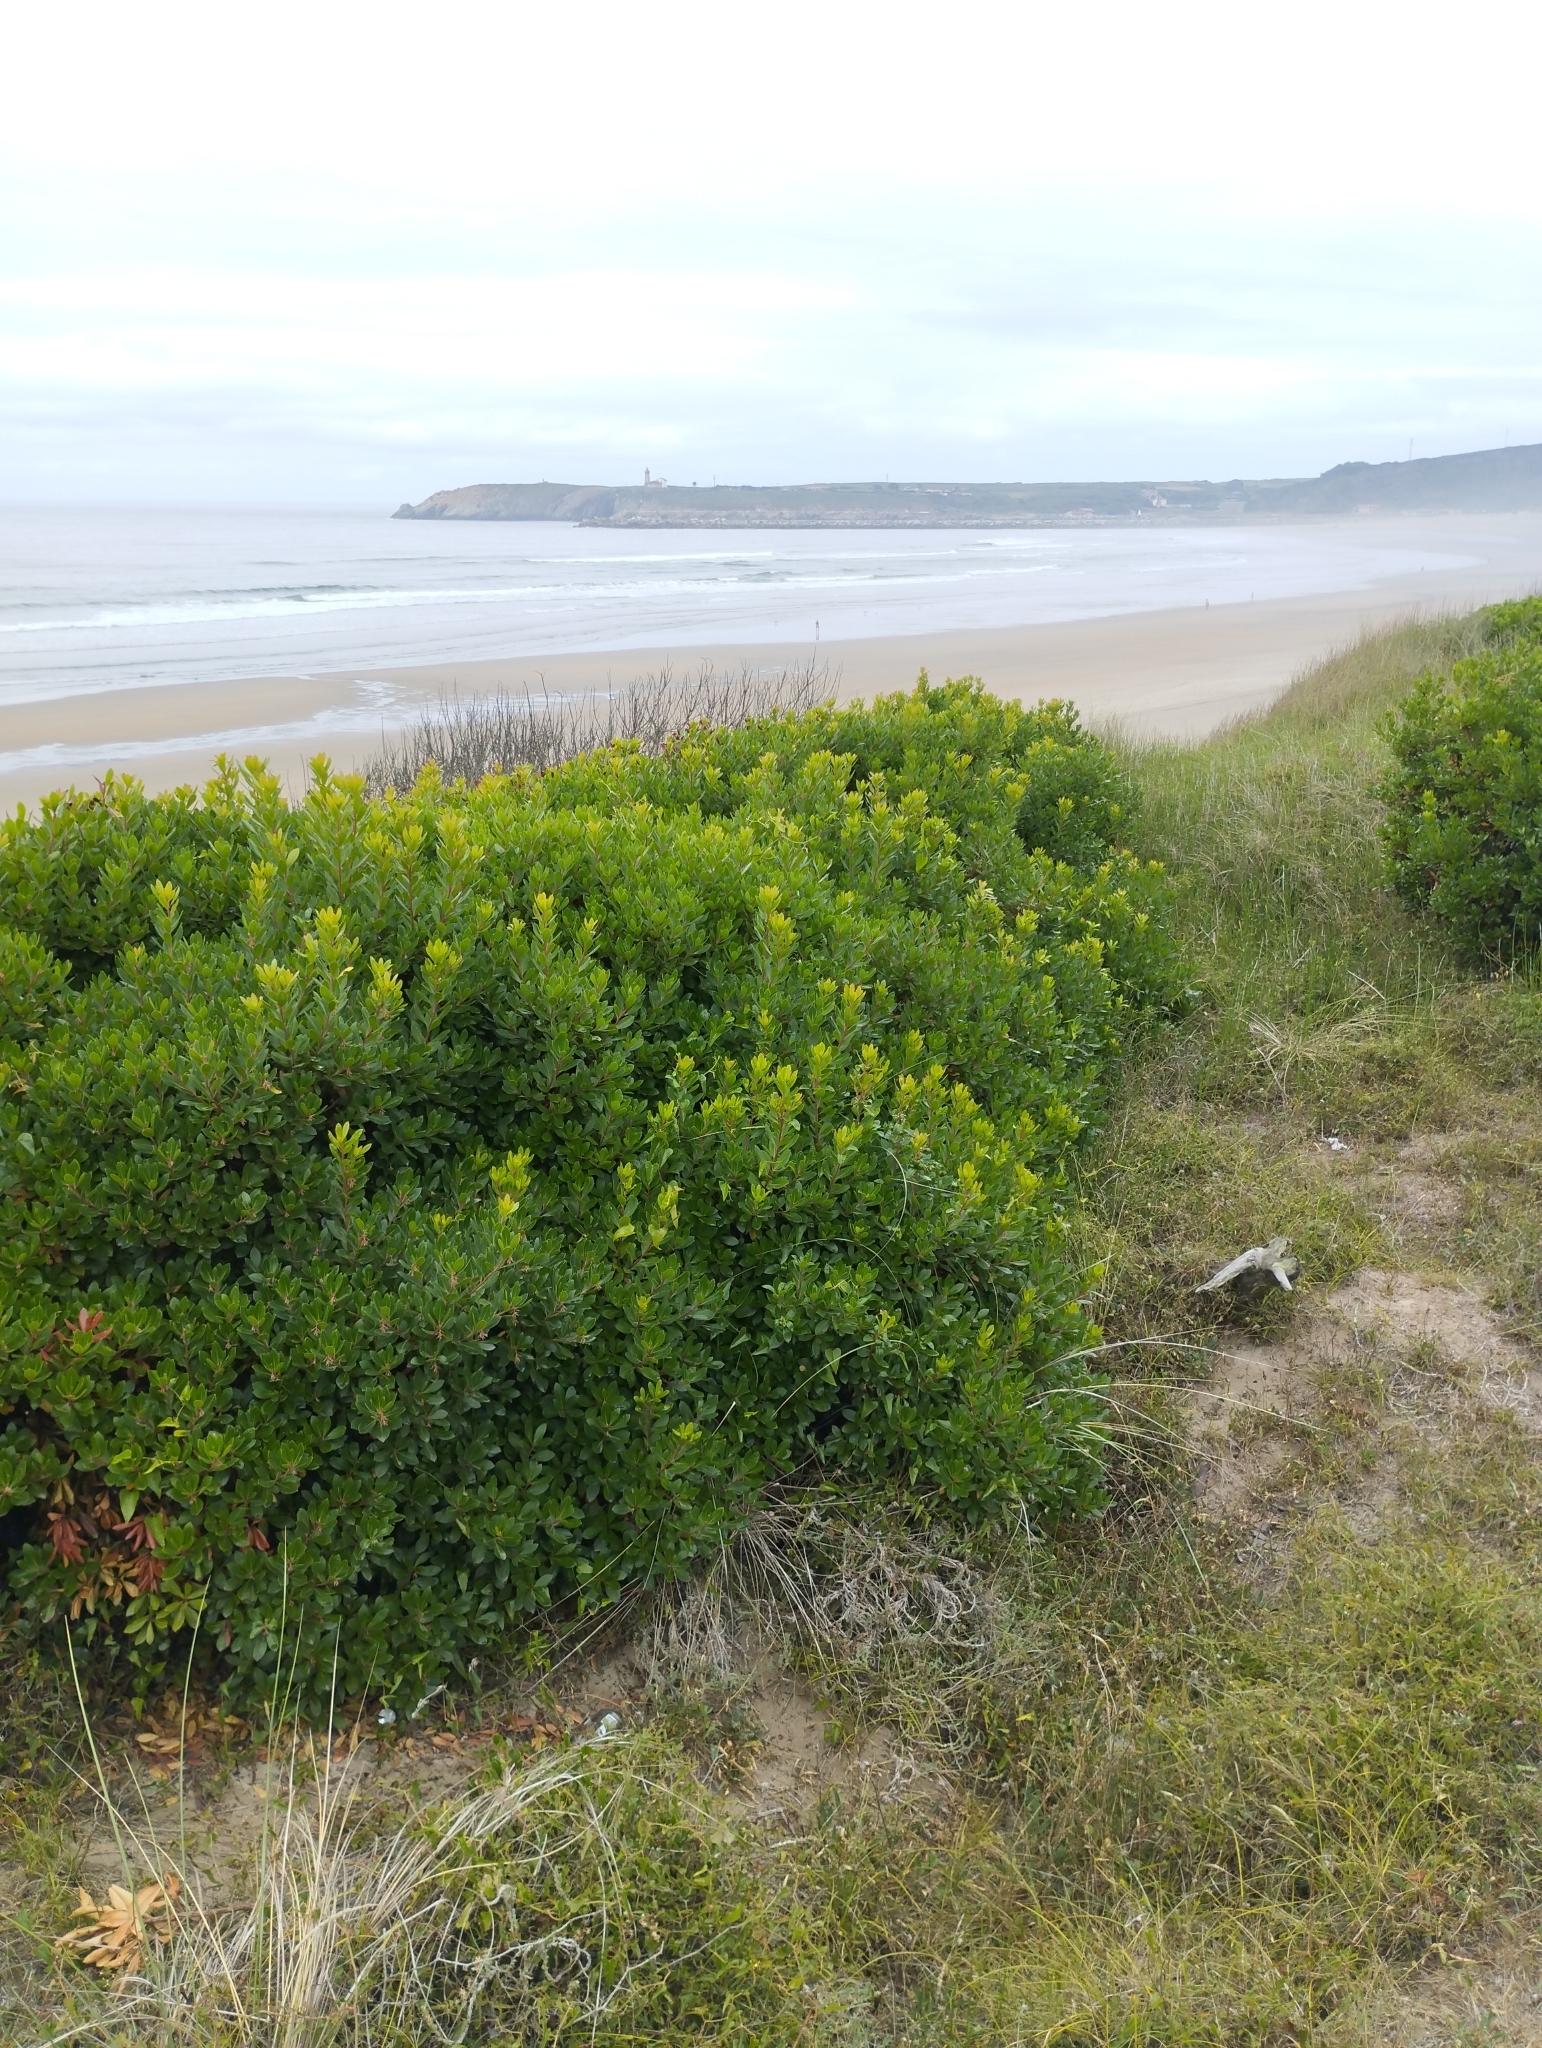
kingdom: Plantae
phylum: Tracheophyta
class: Magnoliopsida
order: Ericales
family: Ericaceae
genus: Arbutus
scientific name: Arbutus unedo
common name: Strawberry-tree
